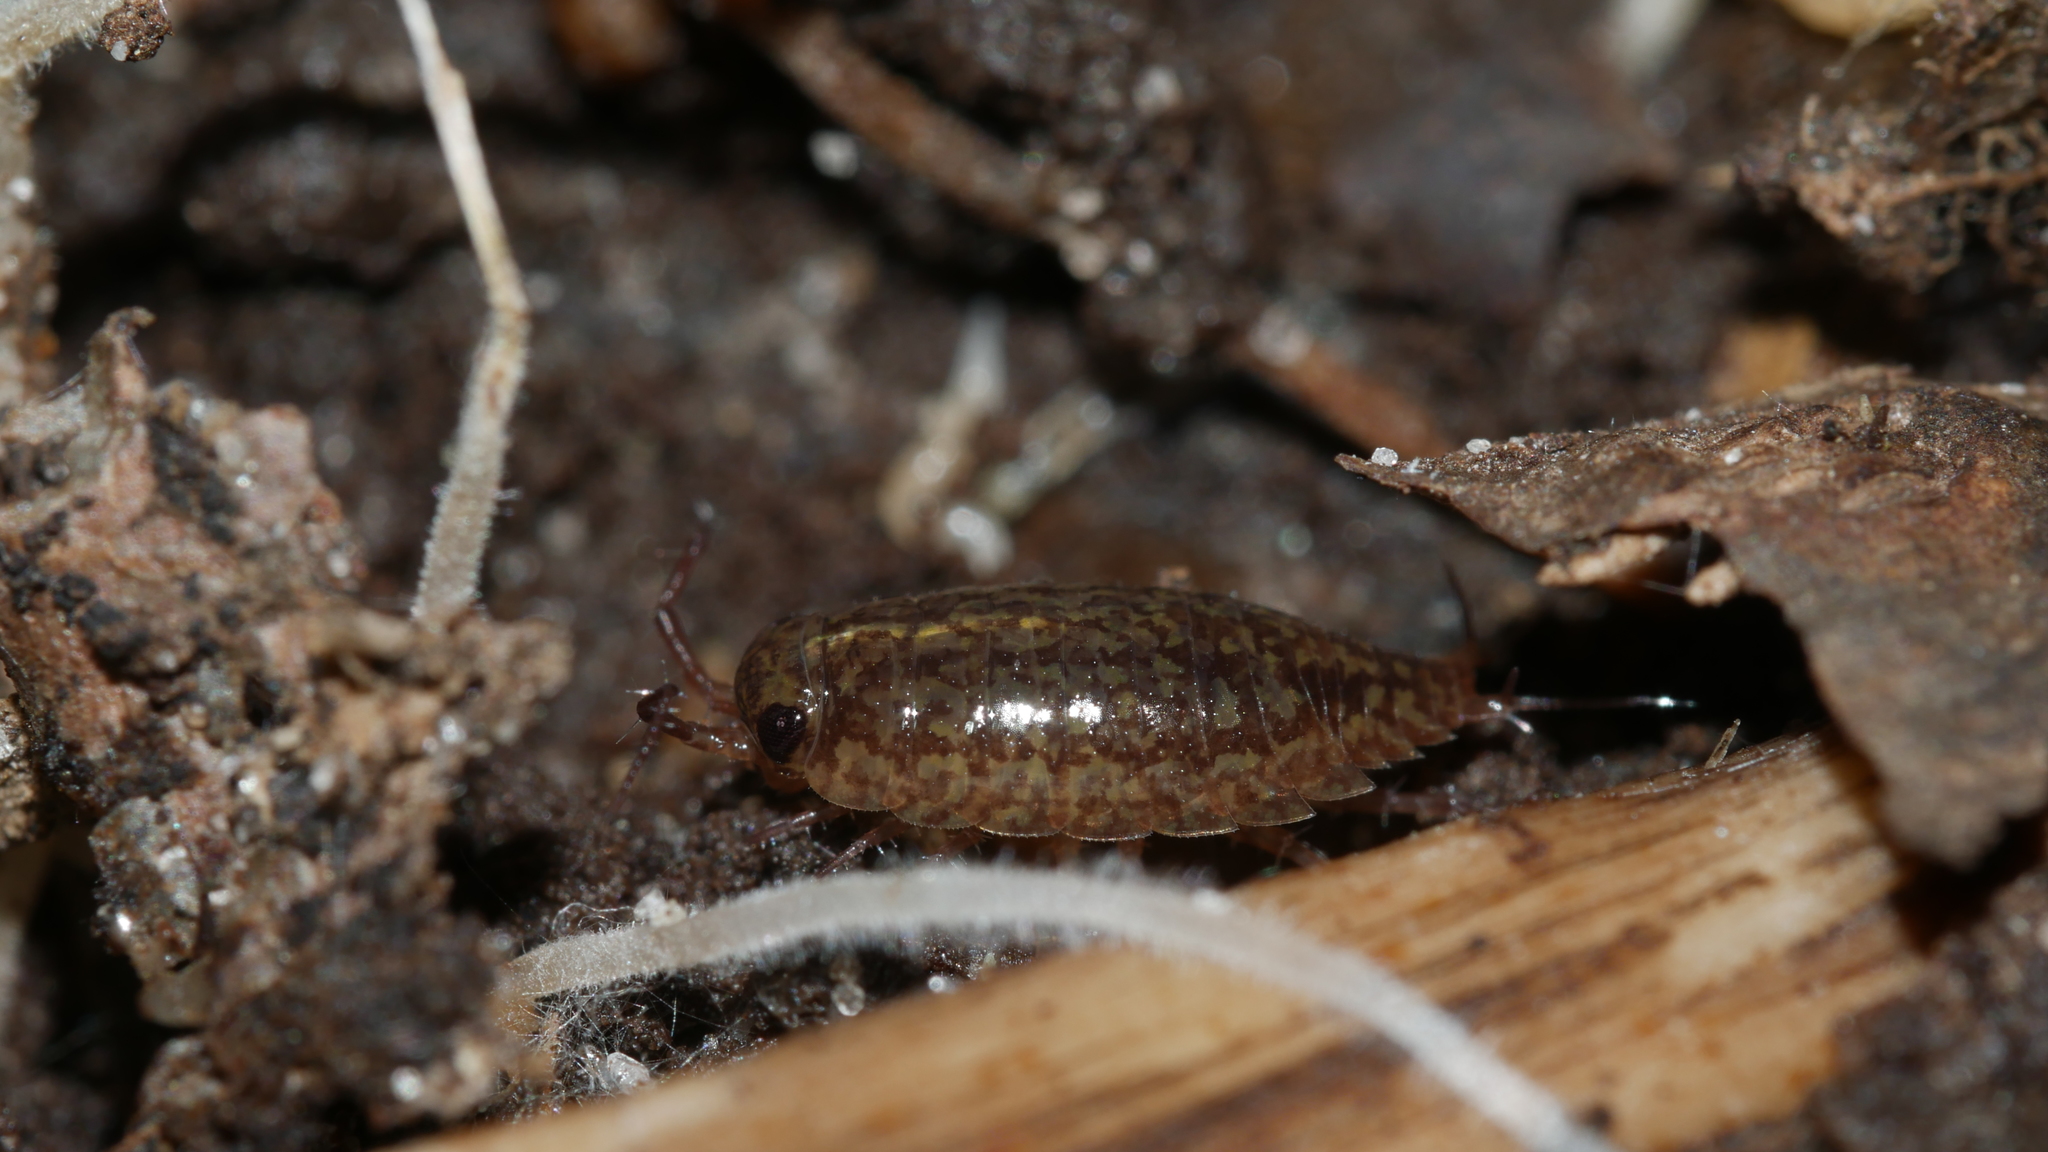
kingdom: Animalia
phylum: Arthropoda
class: Malacostraca
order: Isopoda
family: Ligiidae
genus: Ligidium
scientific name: Ligidium elrodii
